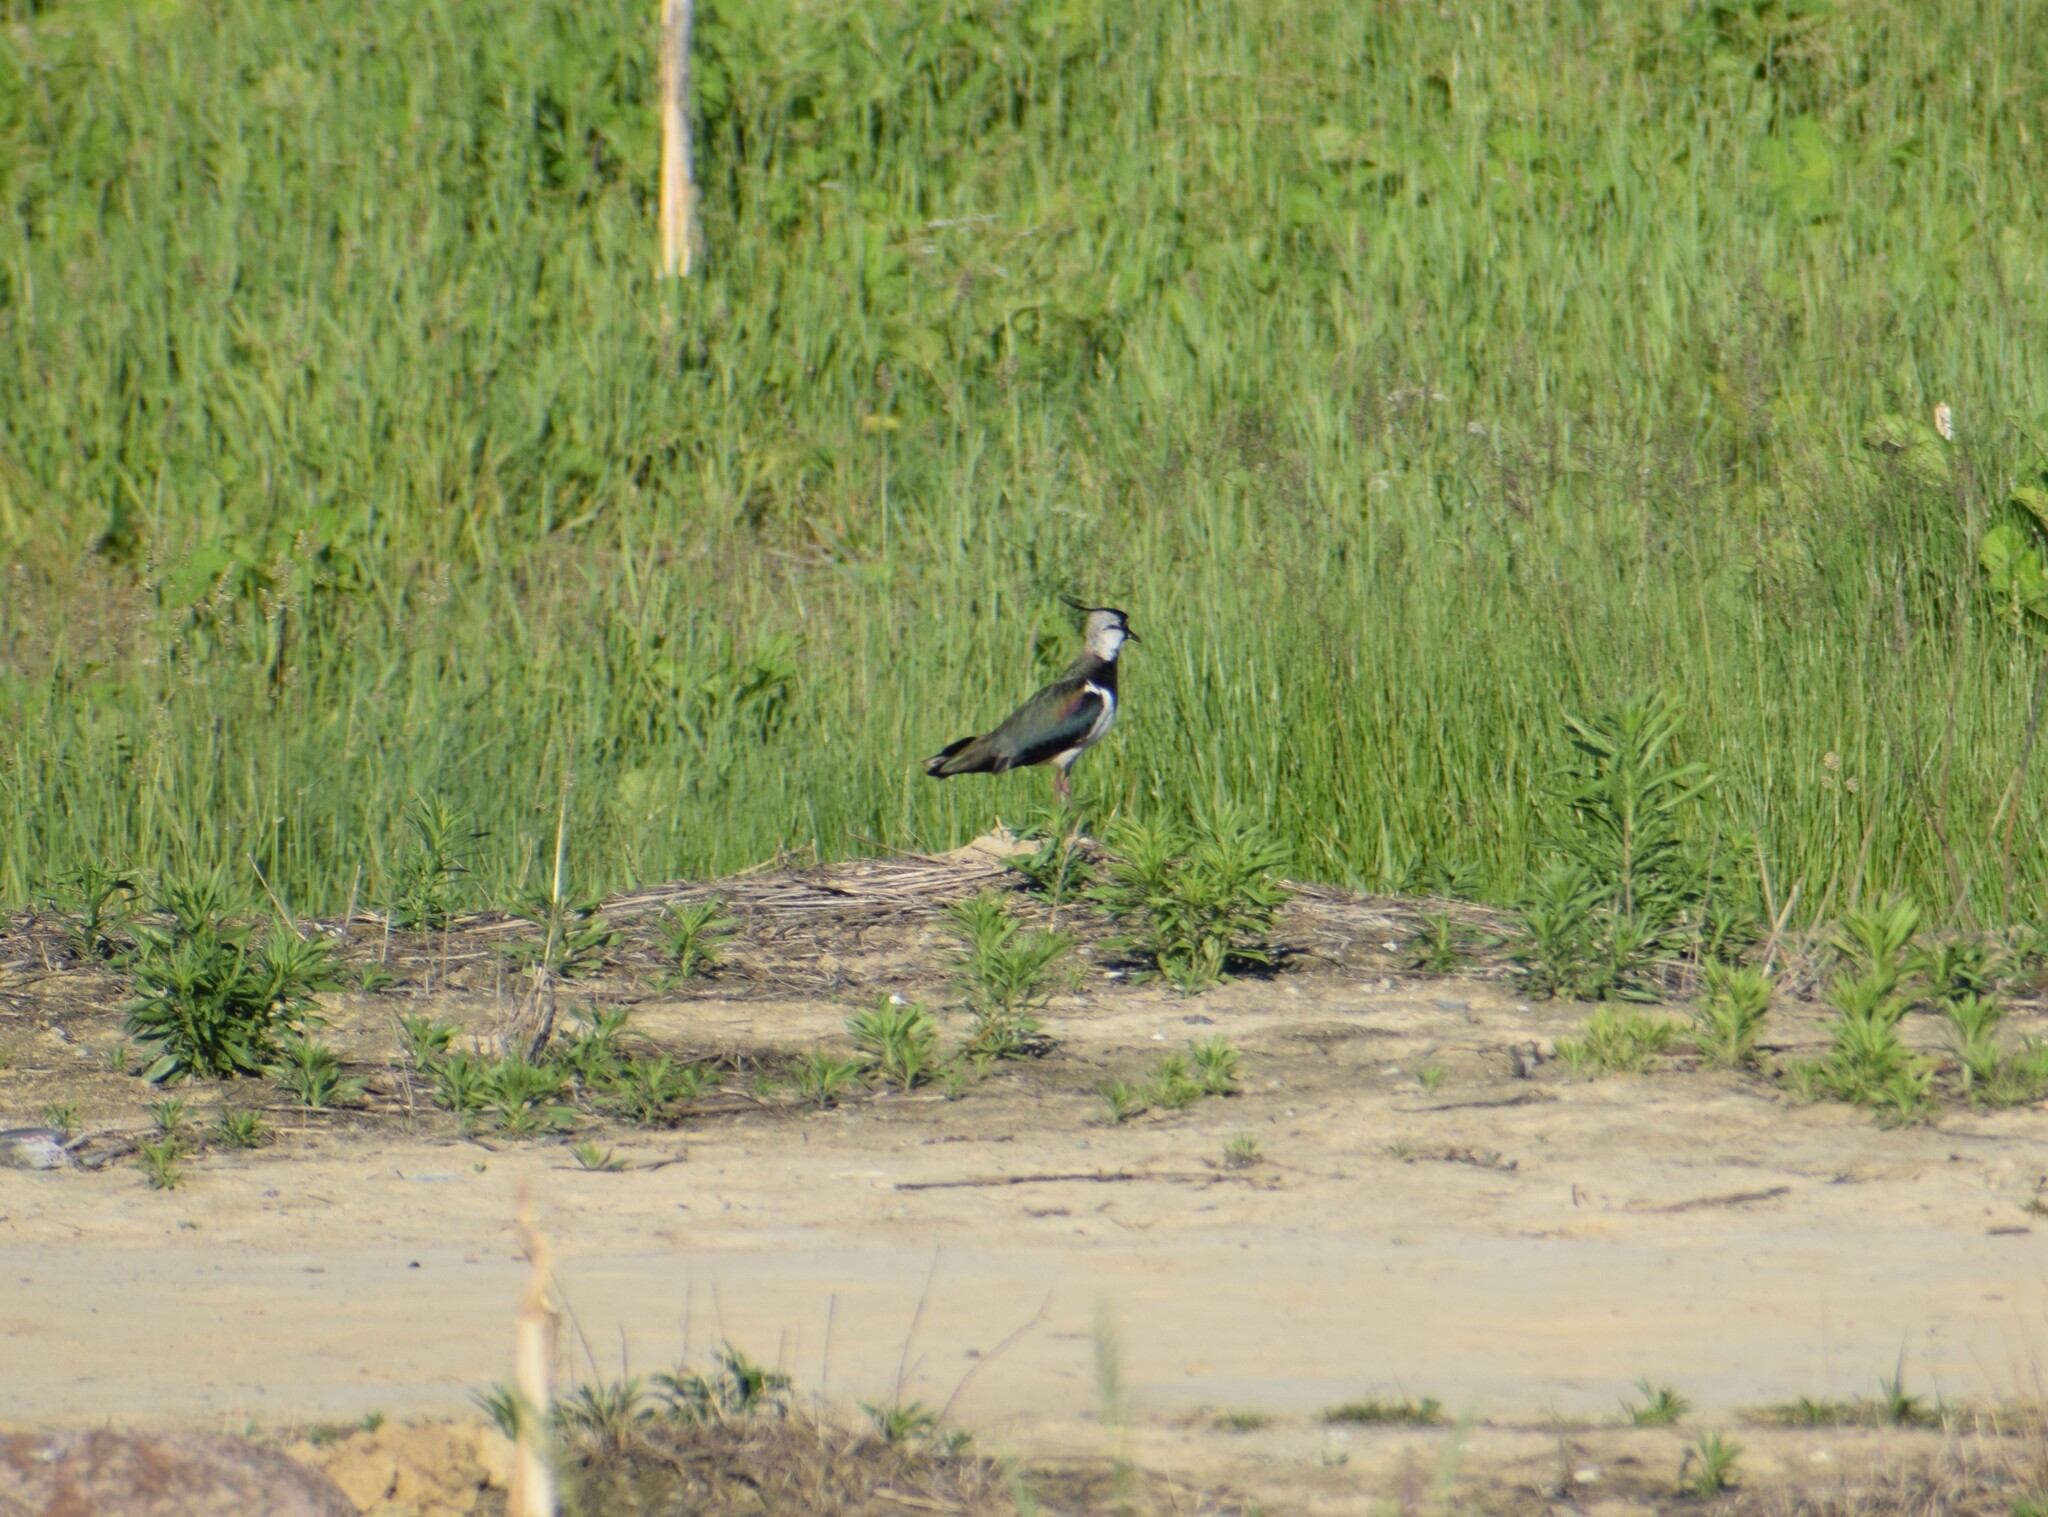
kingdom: Animalia
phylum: Chordata
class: Aves
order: Charadriiformes
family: Charadriidae
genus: Vanellus
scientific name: Vanellus vanellus
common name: Northern lapwing
